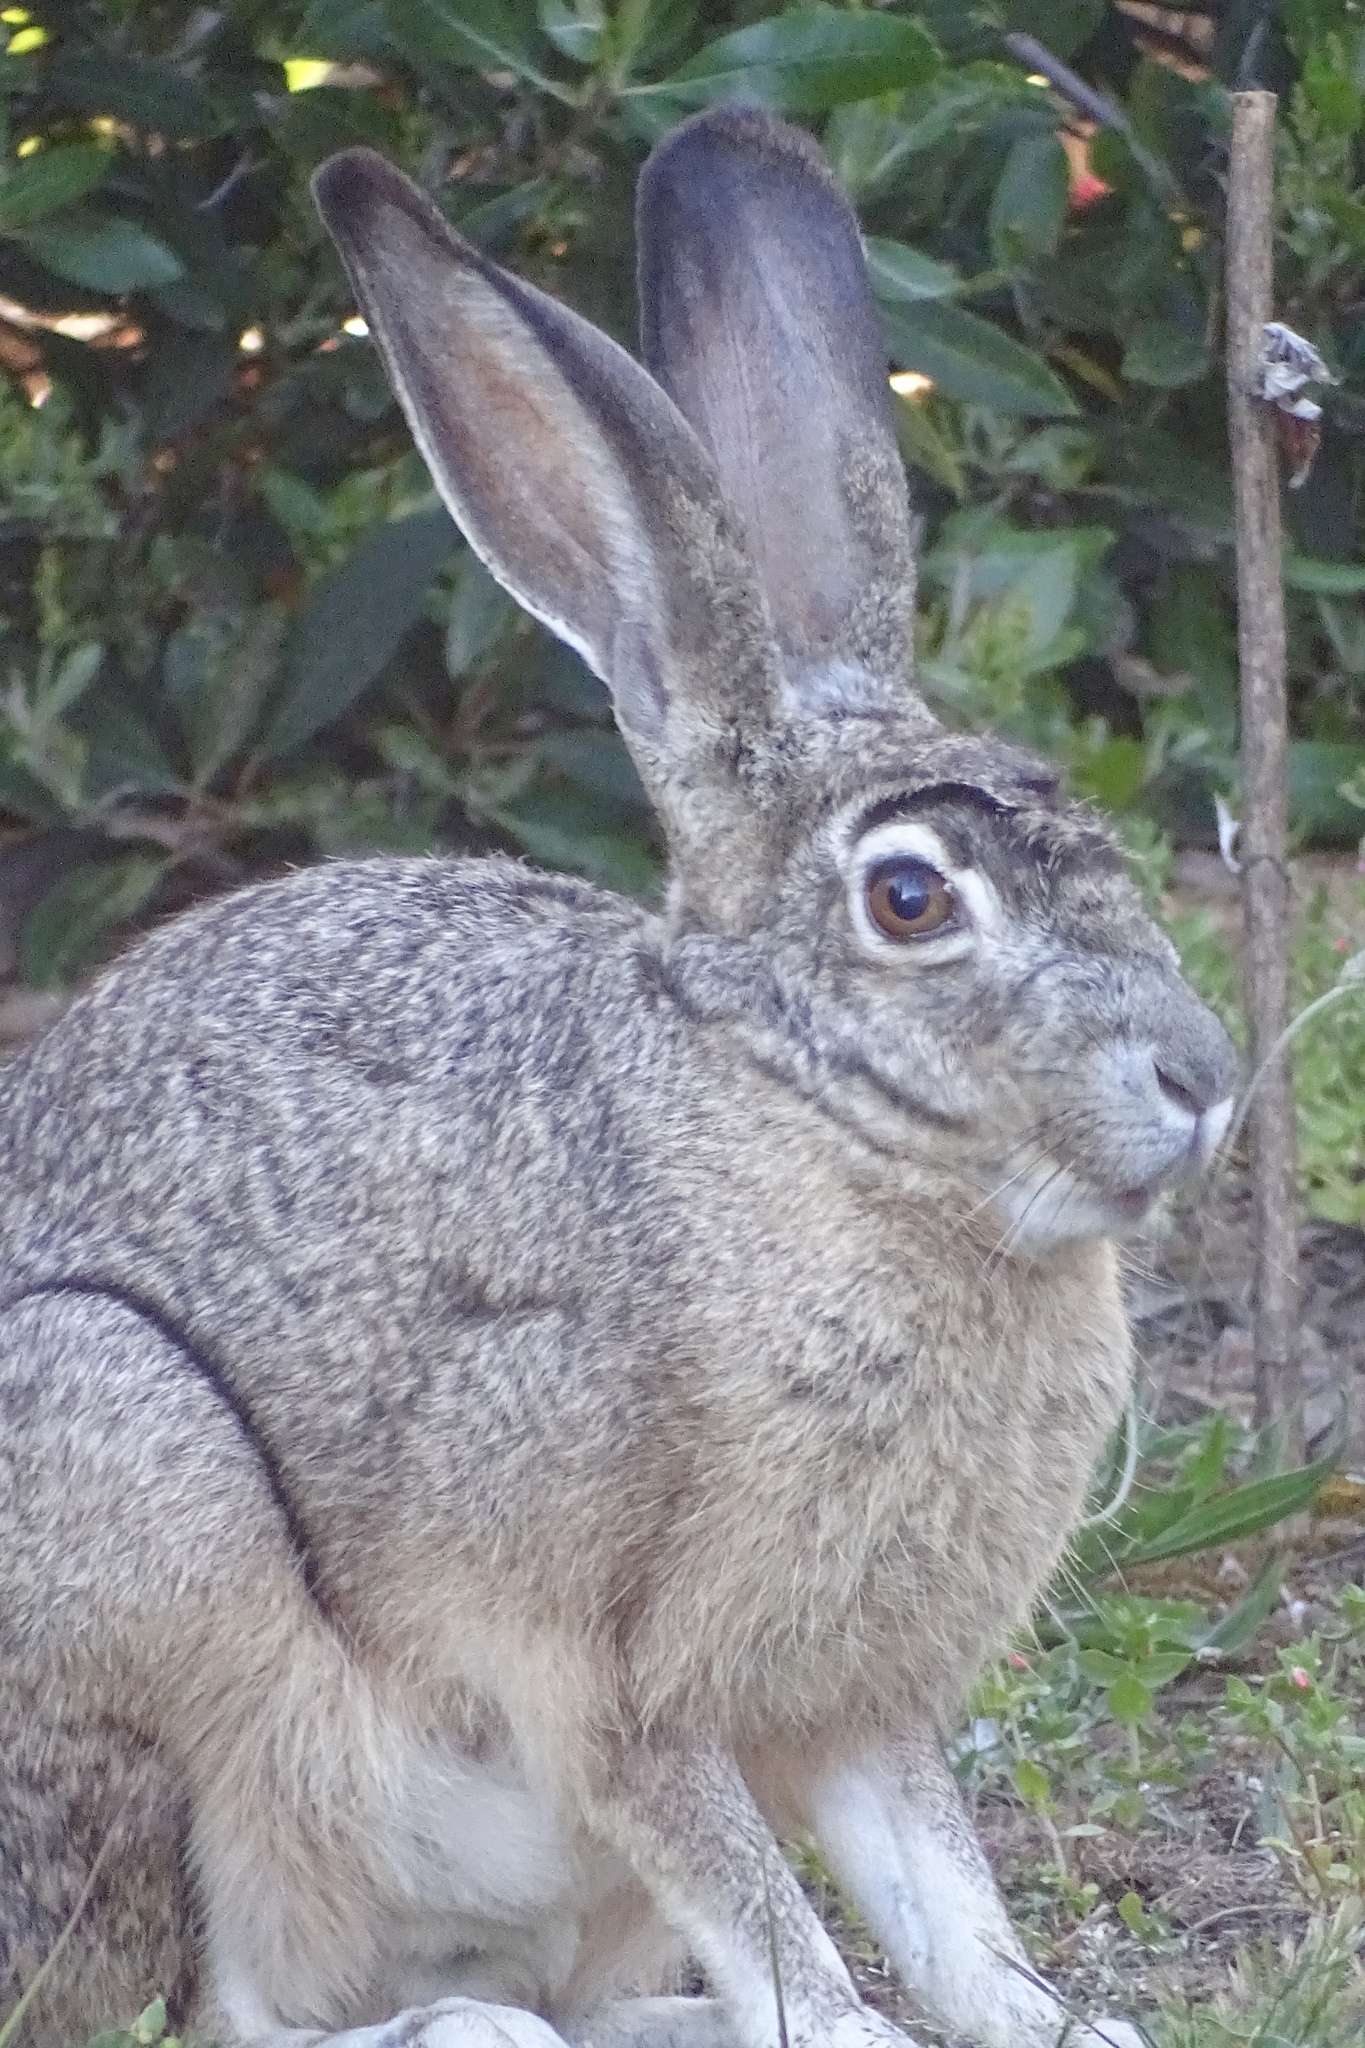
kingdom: Animalia
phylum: Chordata
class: Mammalia
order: Lagomorpha
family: Leporidae
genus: Lepus
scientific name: Lepus californicus
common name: Black-tailed jackrabbit
